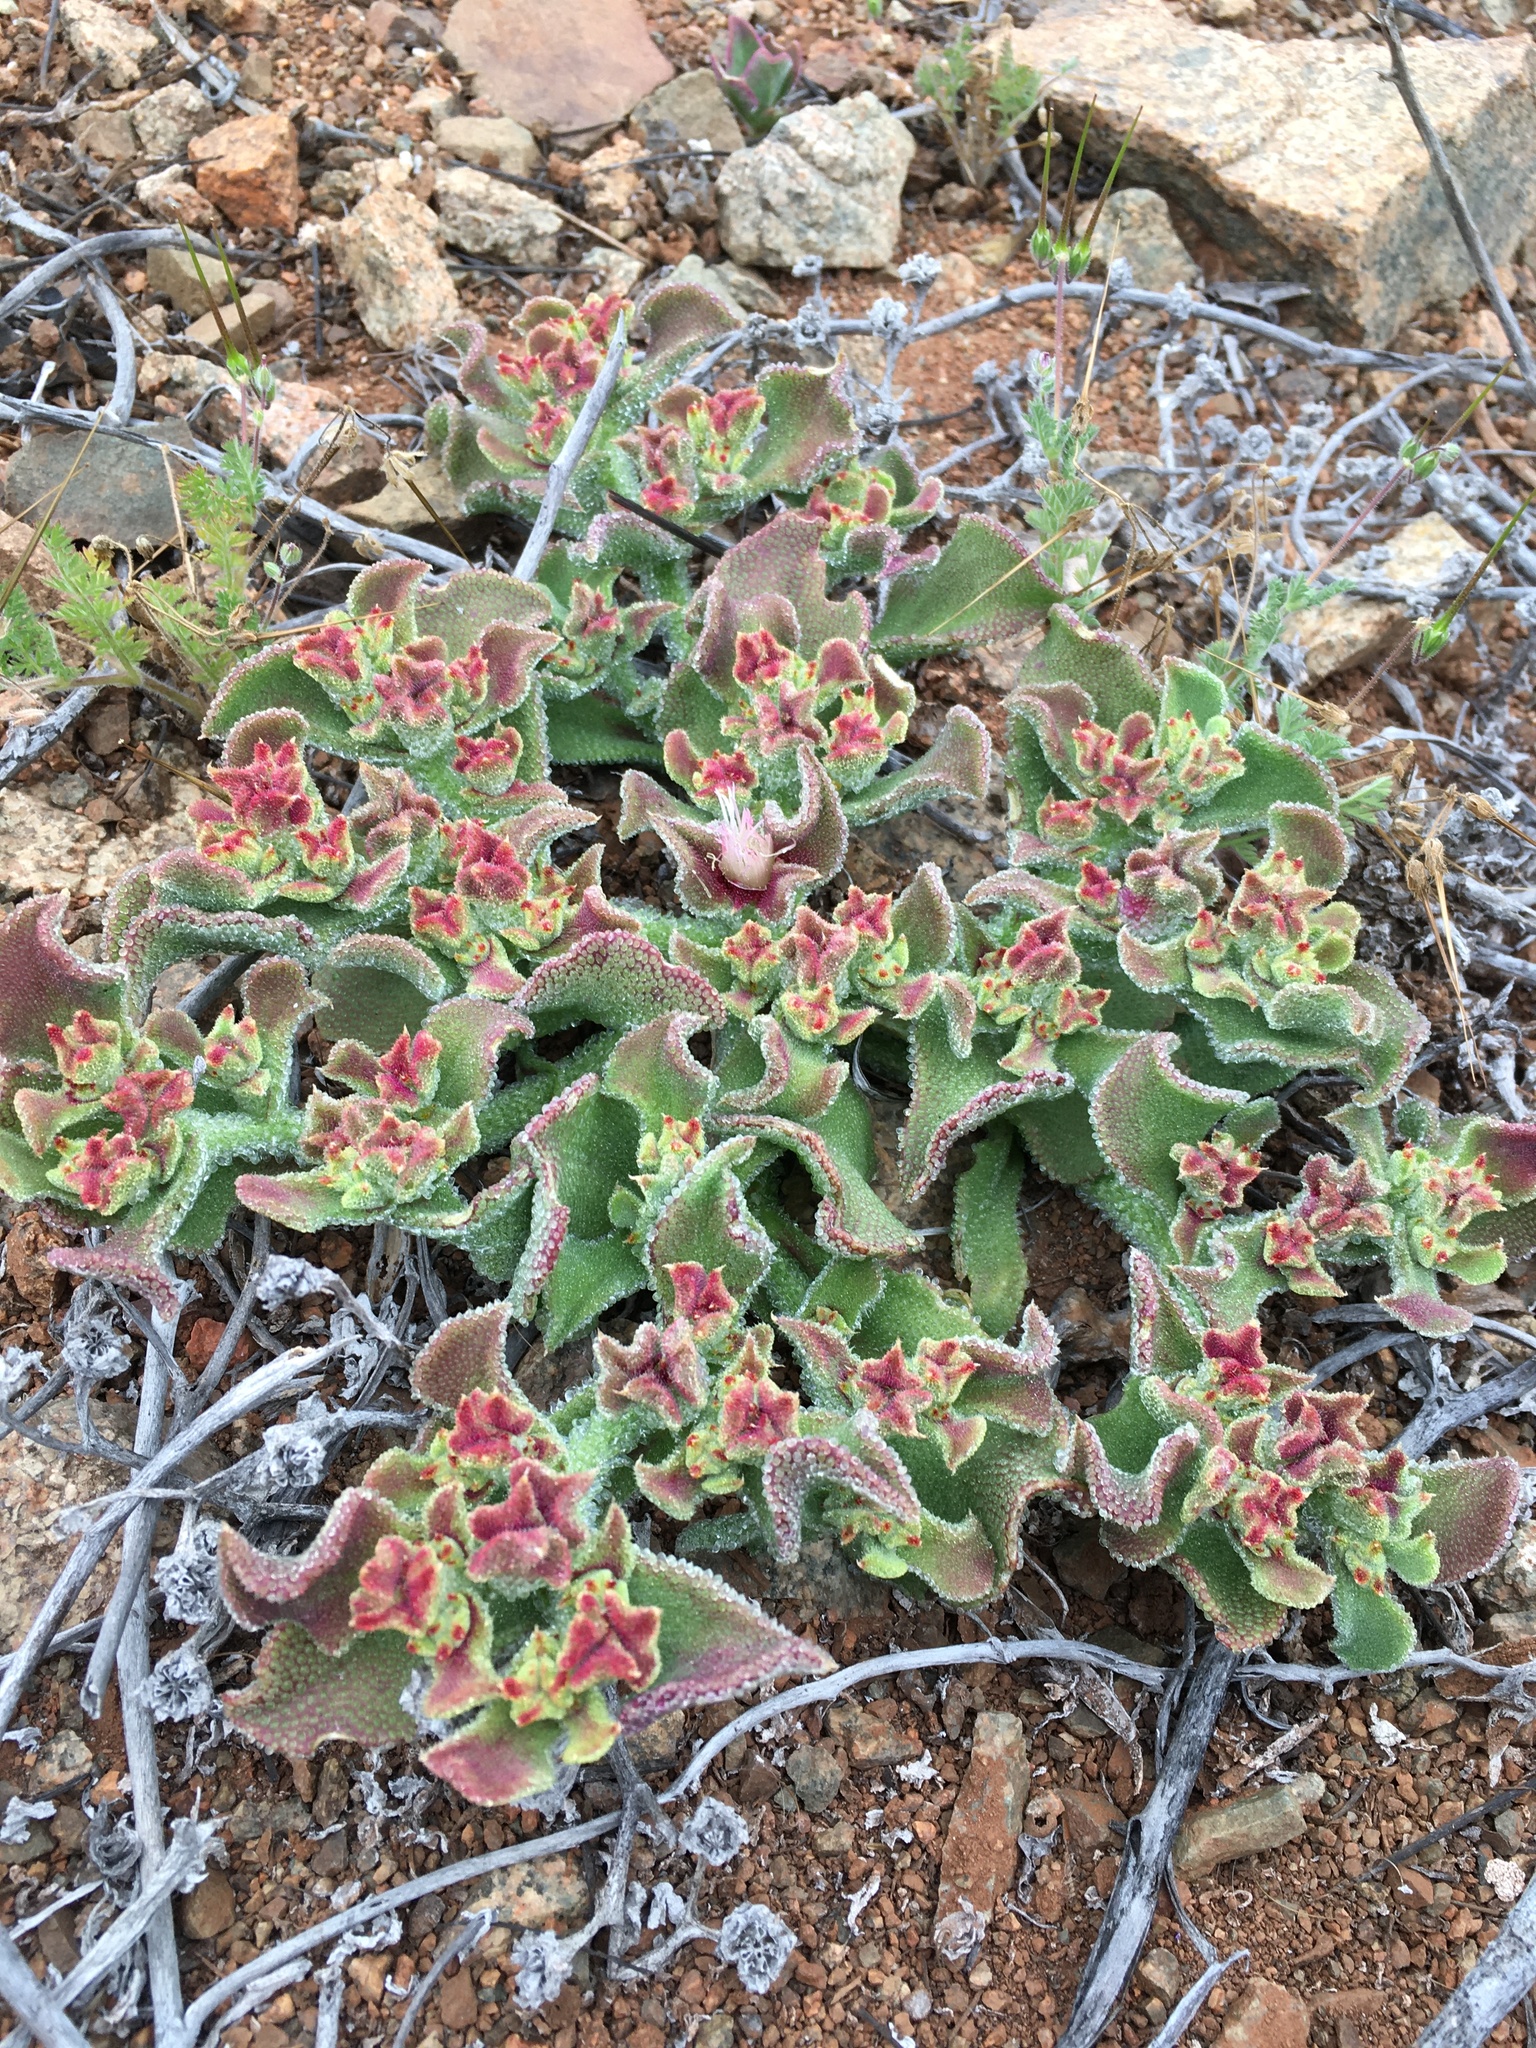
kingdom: Plantae
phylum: Tracheophyta
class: Magnoliopsida
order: Caryophyllales
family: Aizoaceae
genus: Mesembryanthemum
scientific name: Mesembryanthemum crystallinum
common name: Common iceplant
